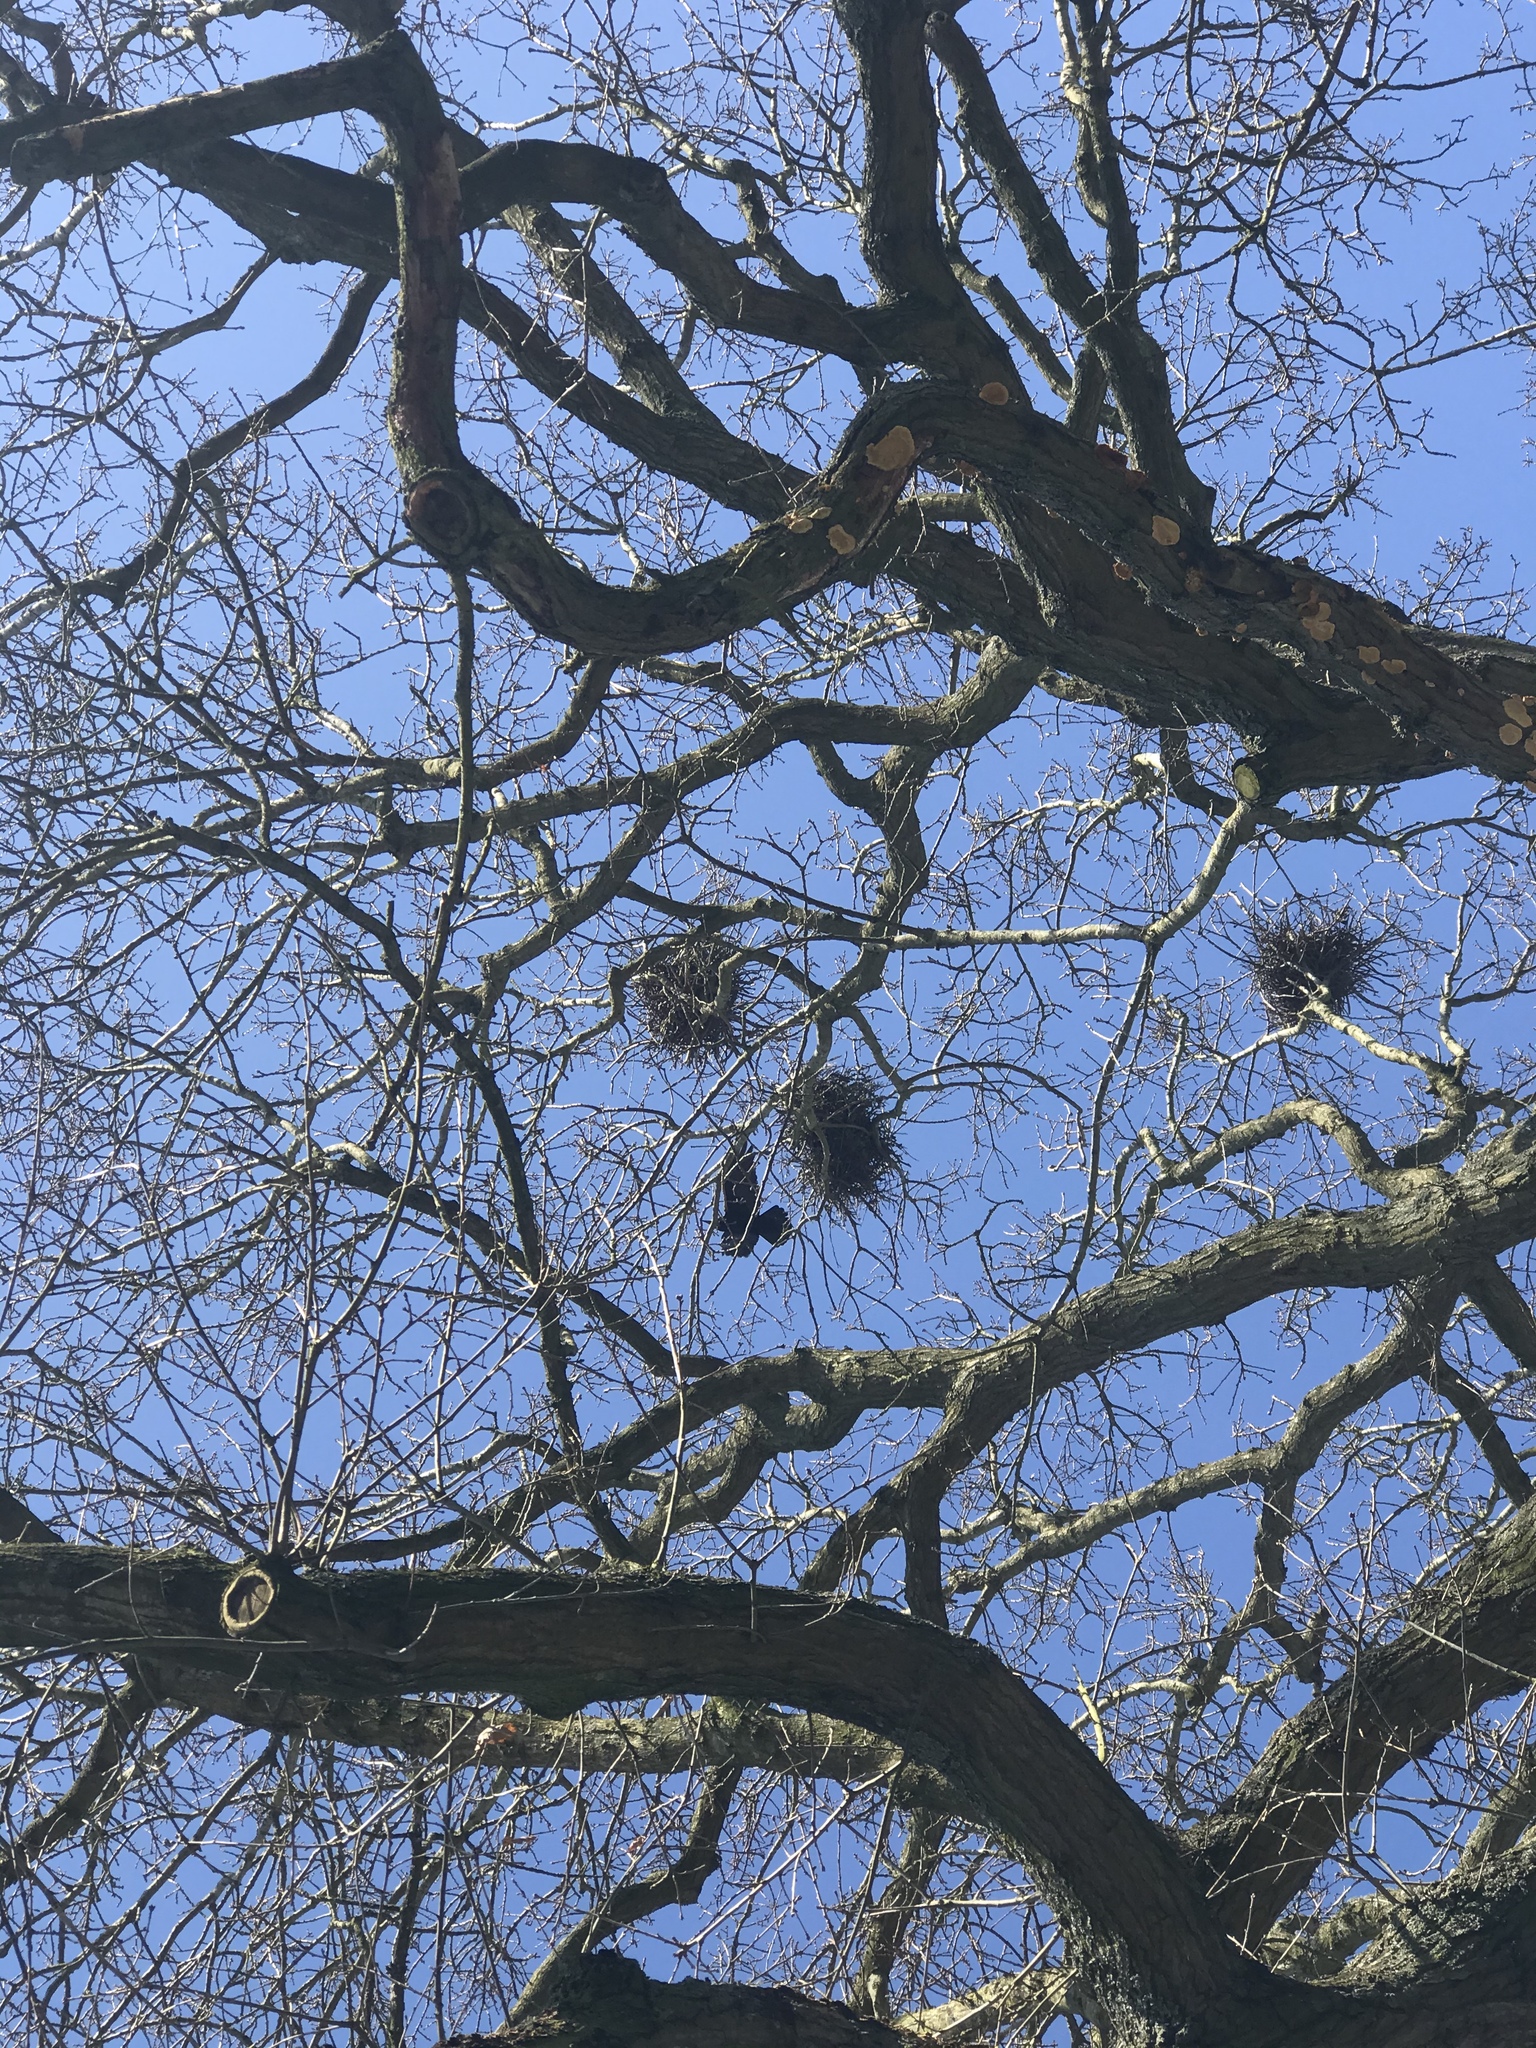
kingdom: Animalia
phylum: Chordata
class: Aves
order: Passeriformes
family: Corvidae
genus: Corvus
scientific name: Corvus frugilegus
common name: Rook
